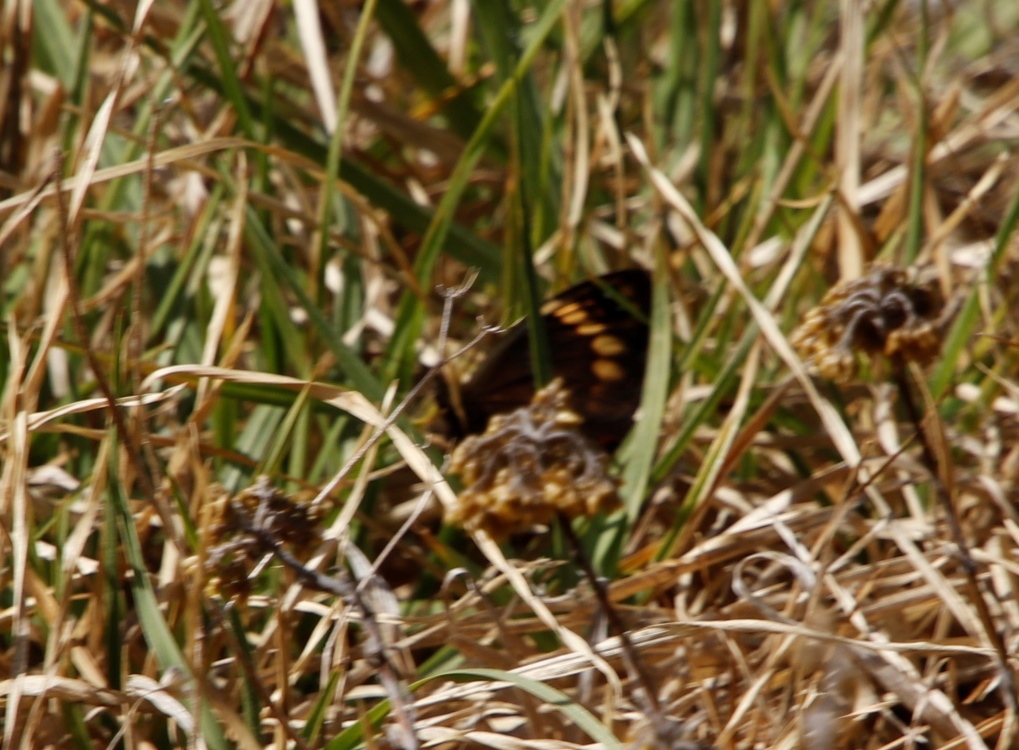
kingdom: Animalia
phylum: Arthropoda
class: Insecta
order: Lepidoptera
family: Nymphalidae
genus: Dira
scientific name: Dira clytus
